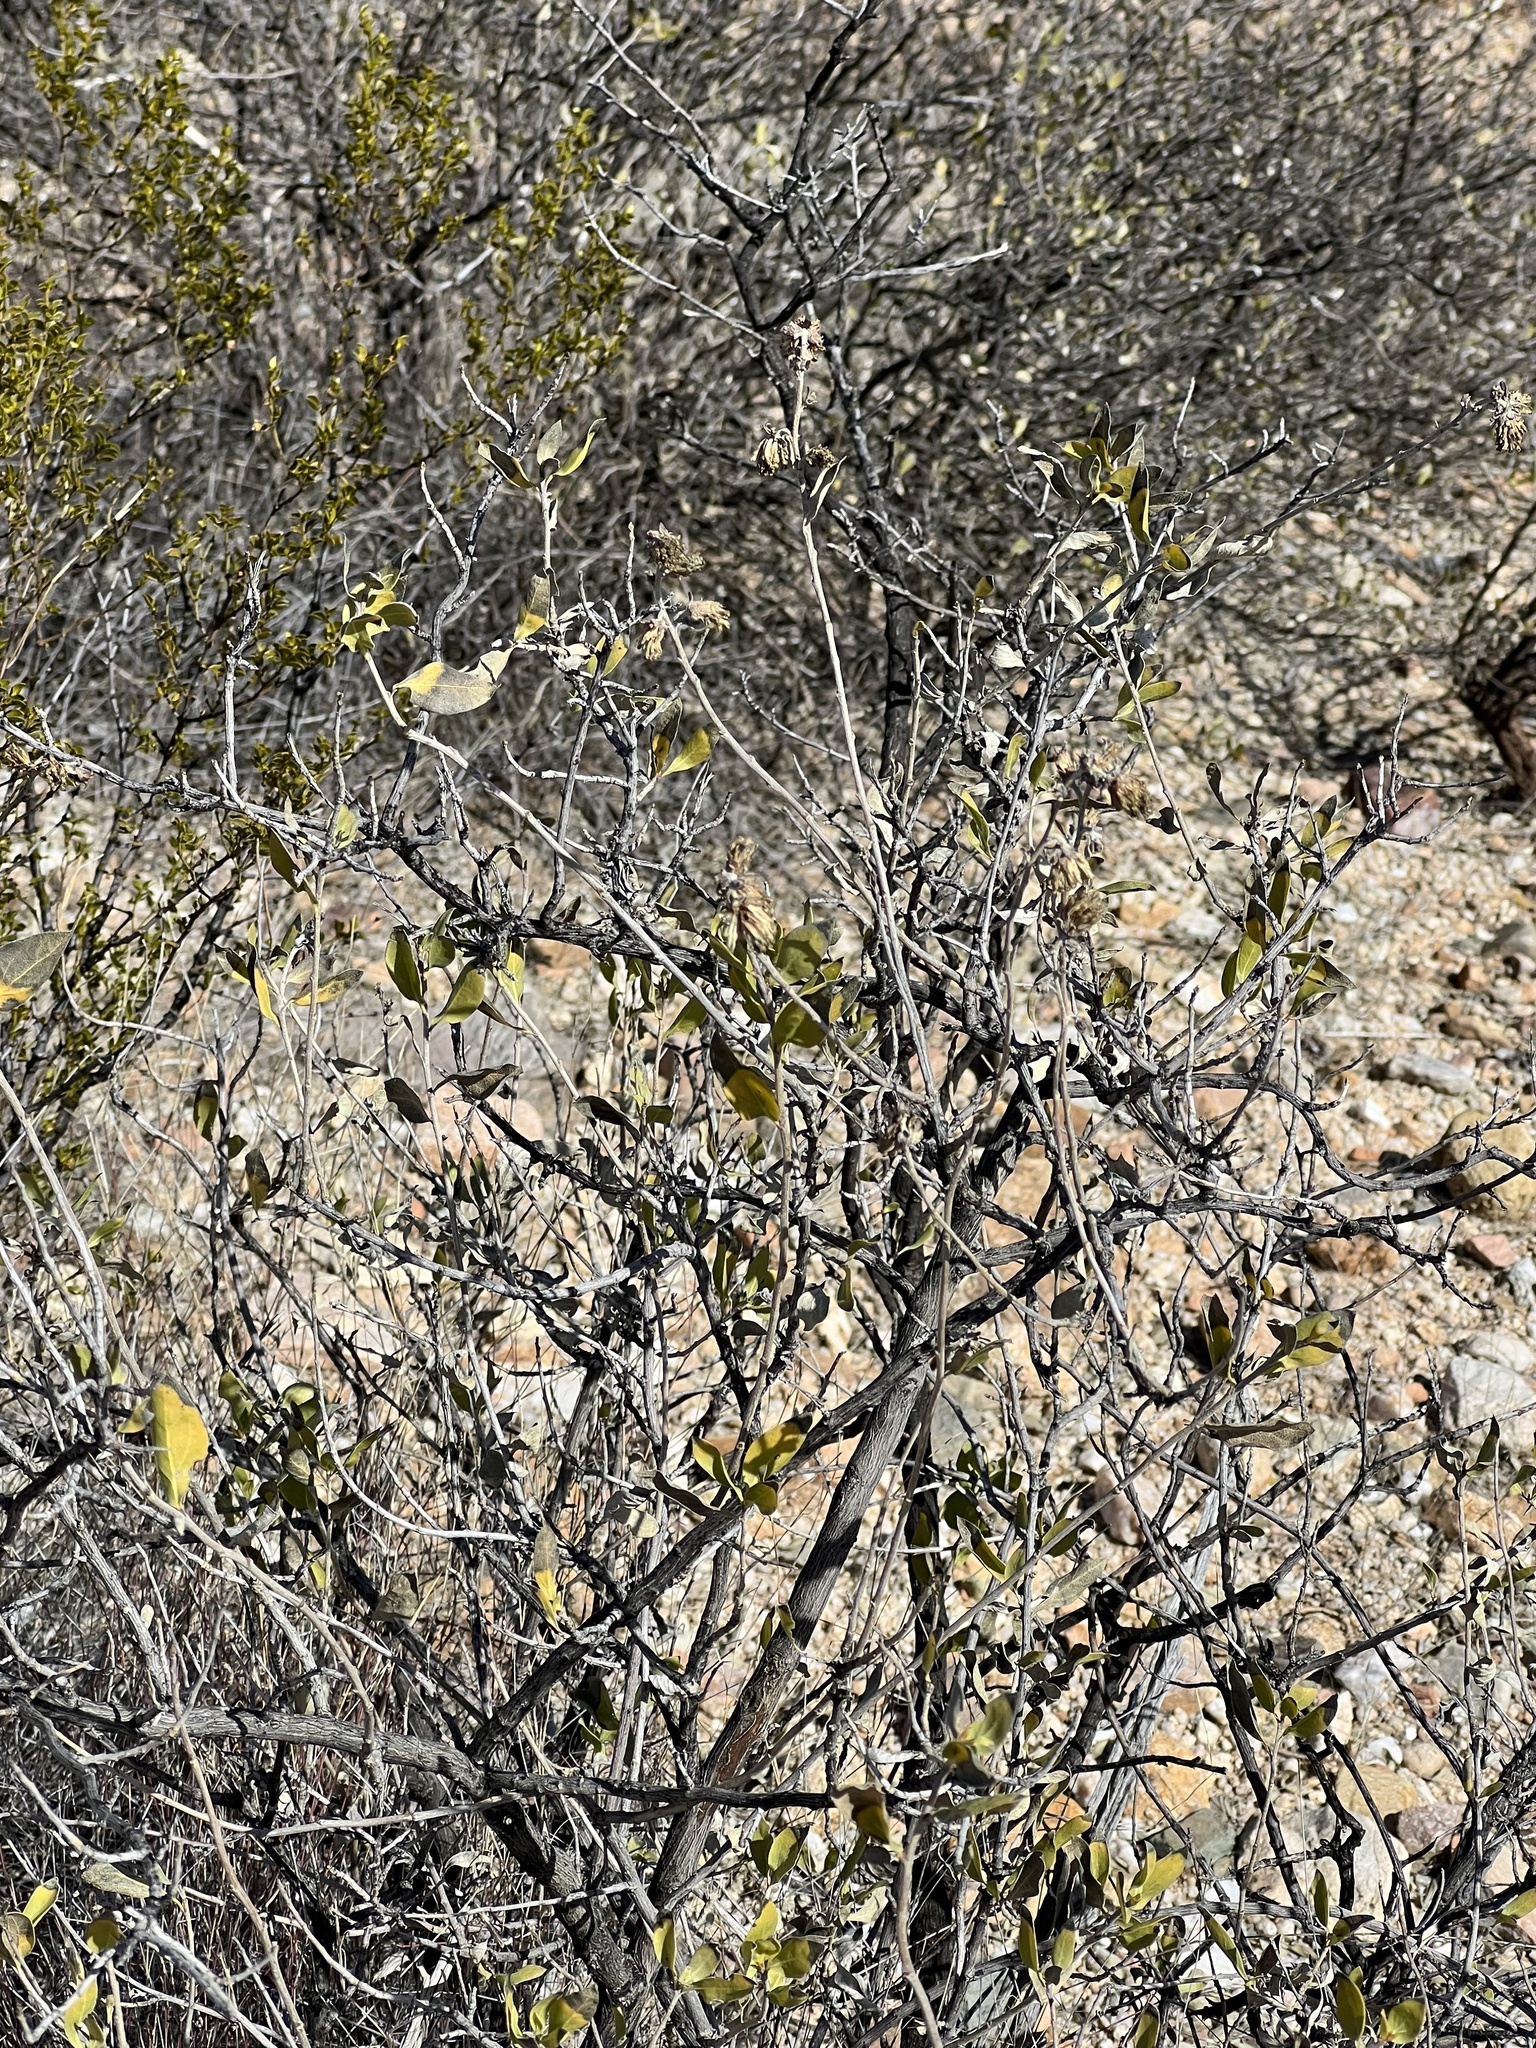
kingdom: Plantae
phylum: Tracheophyta
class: Magnoliopsida
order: Asterales
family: Asteraceae
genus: Flourensia
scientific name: Flourensia cernua
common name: Varnishbush
